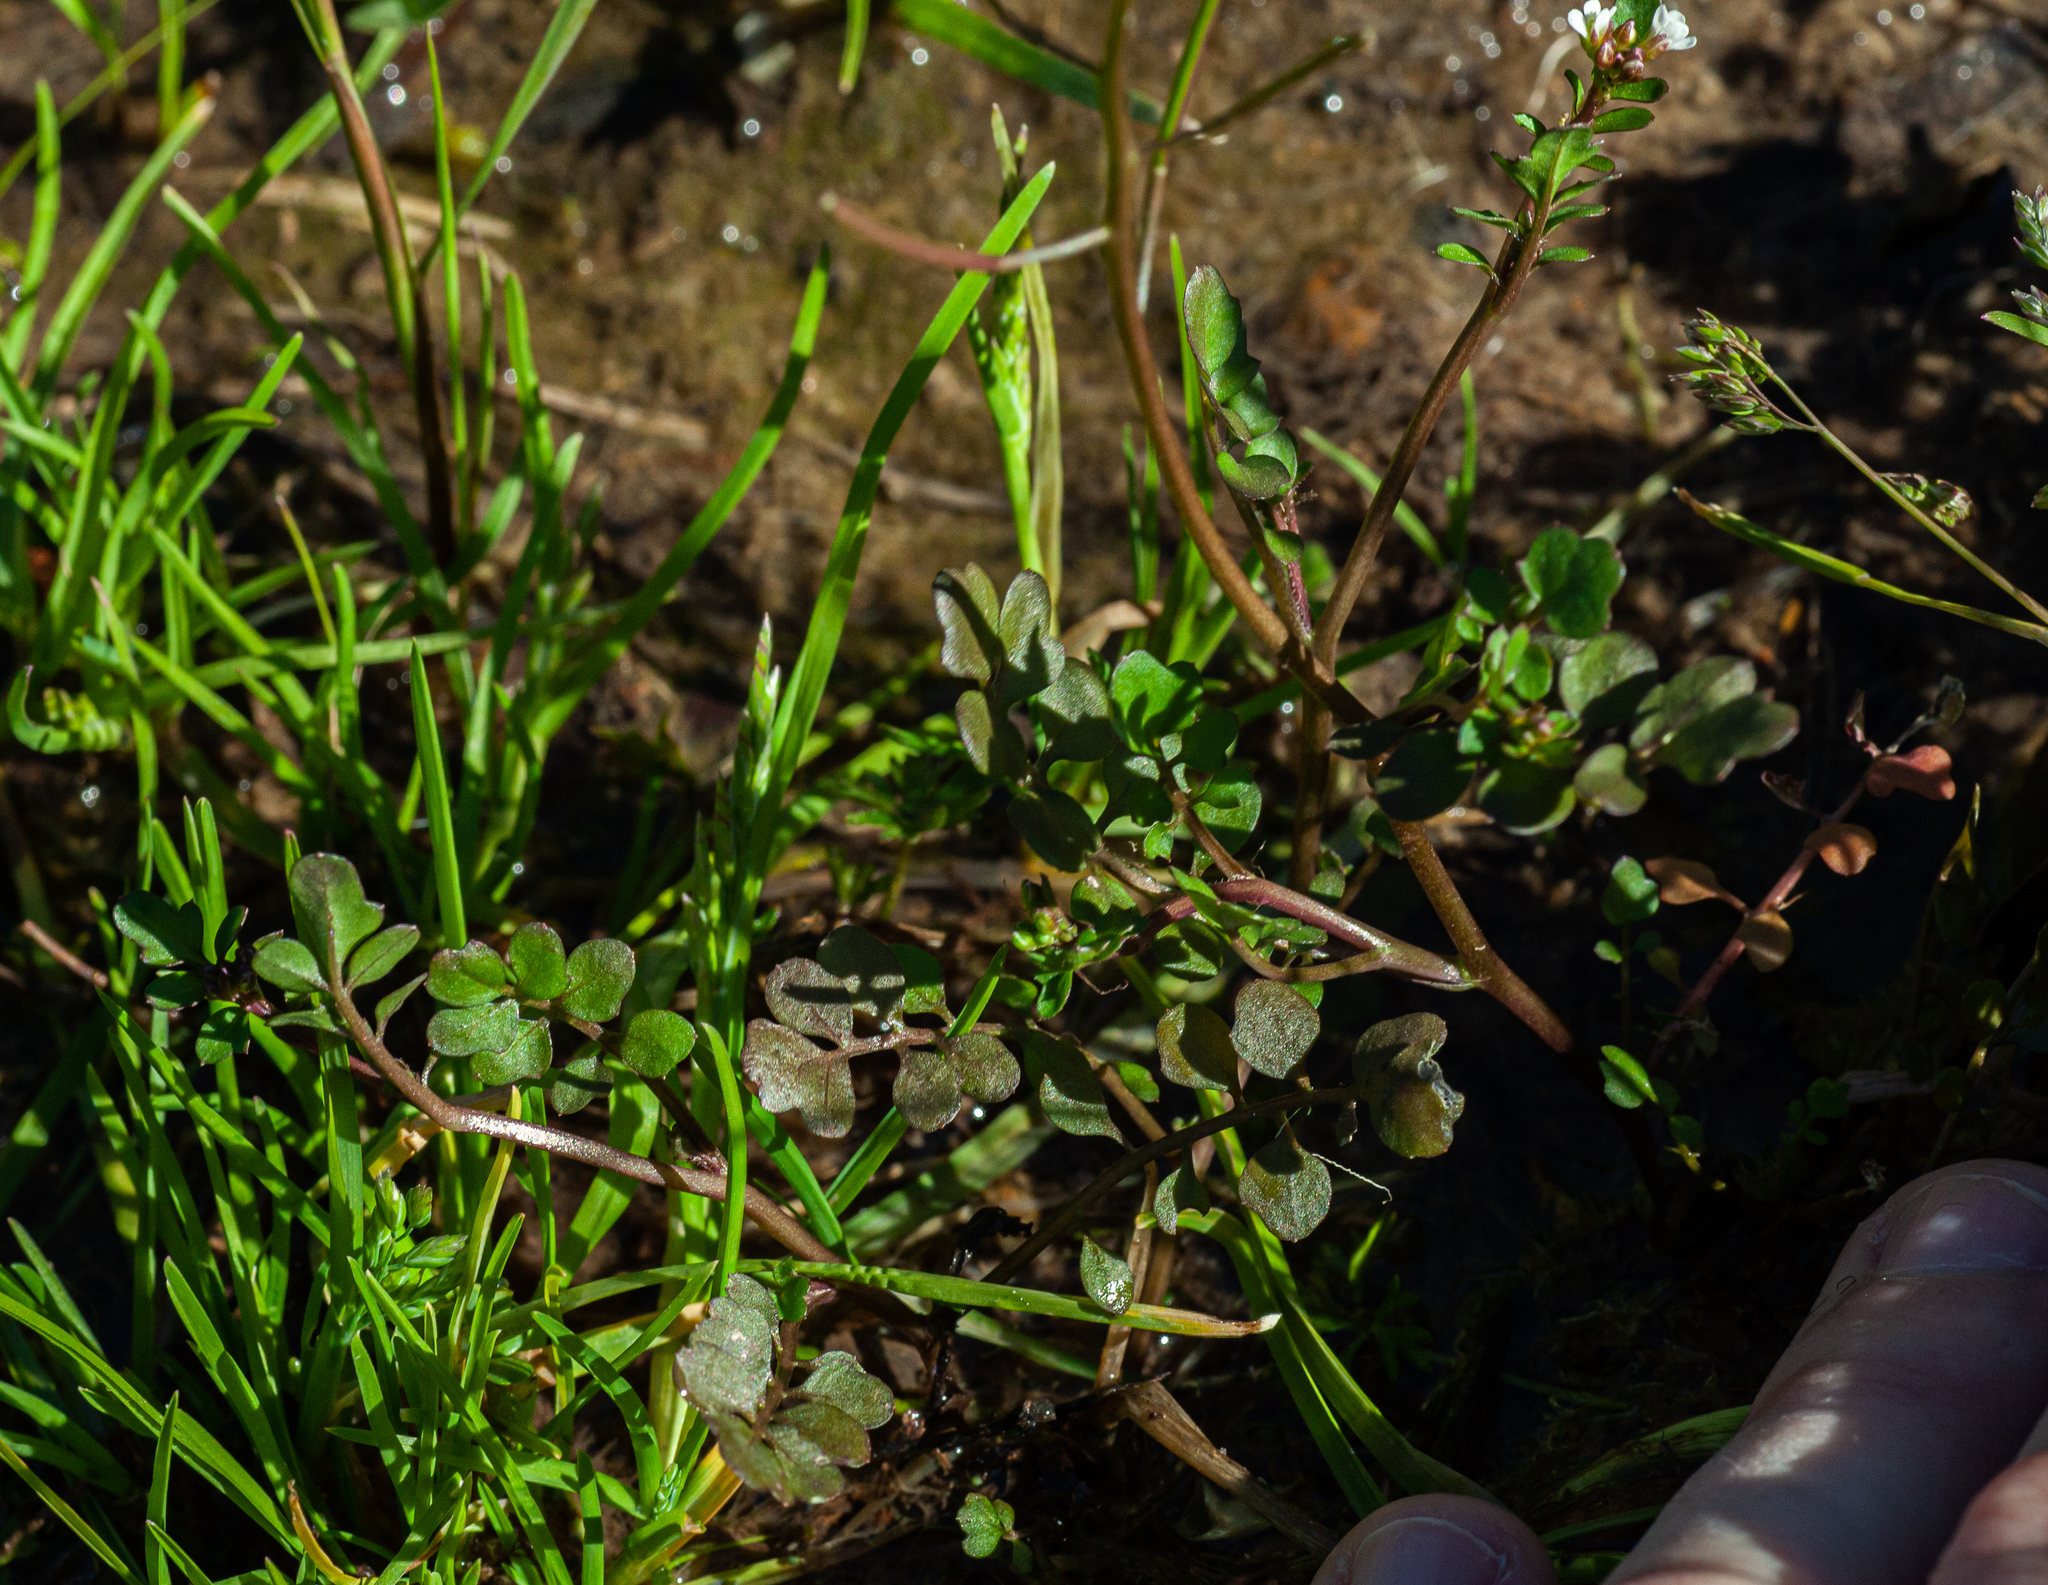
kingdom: Plantae
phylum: Tracheophyta
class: Magnoliopsida
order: Brassicales
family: Brassicaceae
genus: Cardamine
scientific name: Cardamine occulta
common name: Asian wavy bittercress
